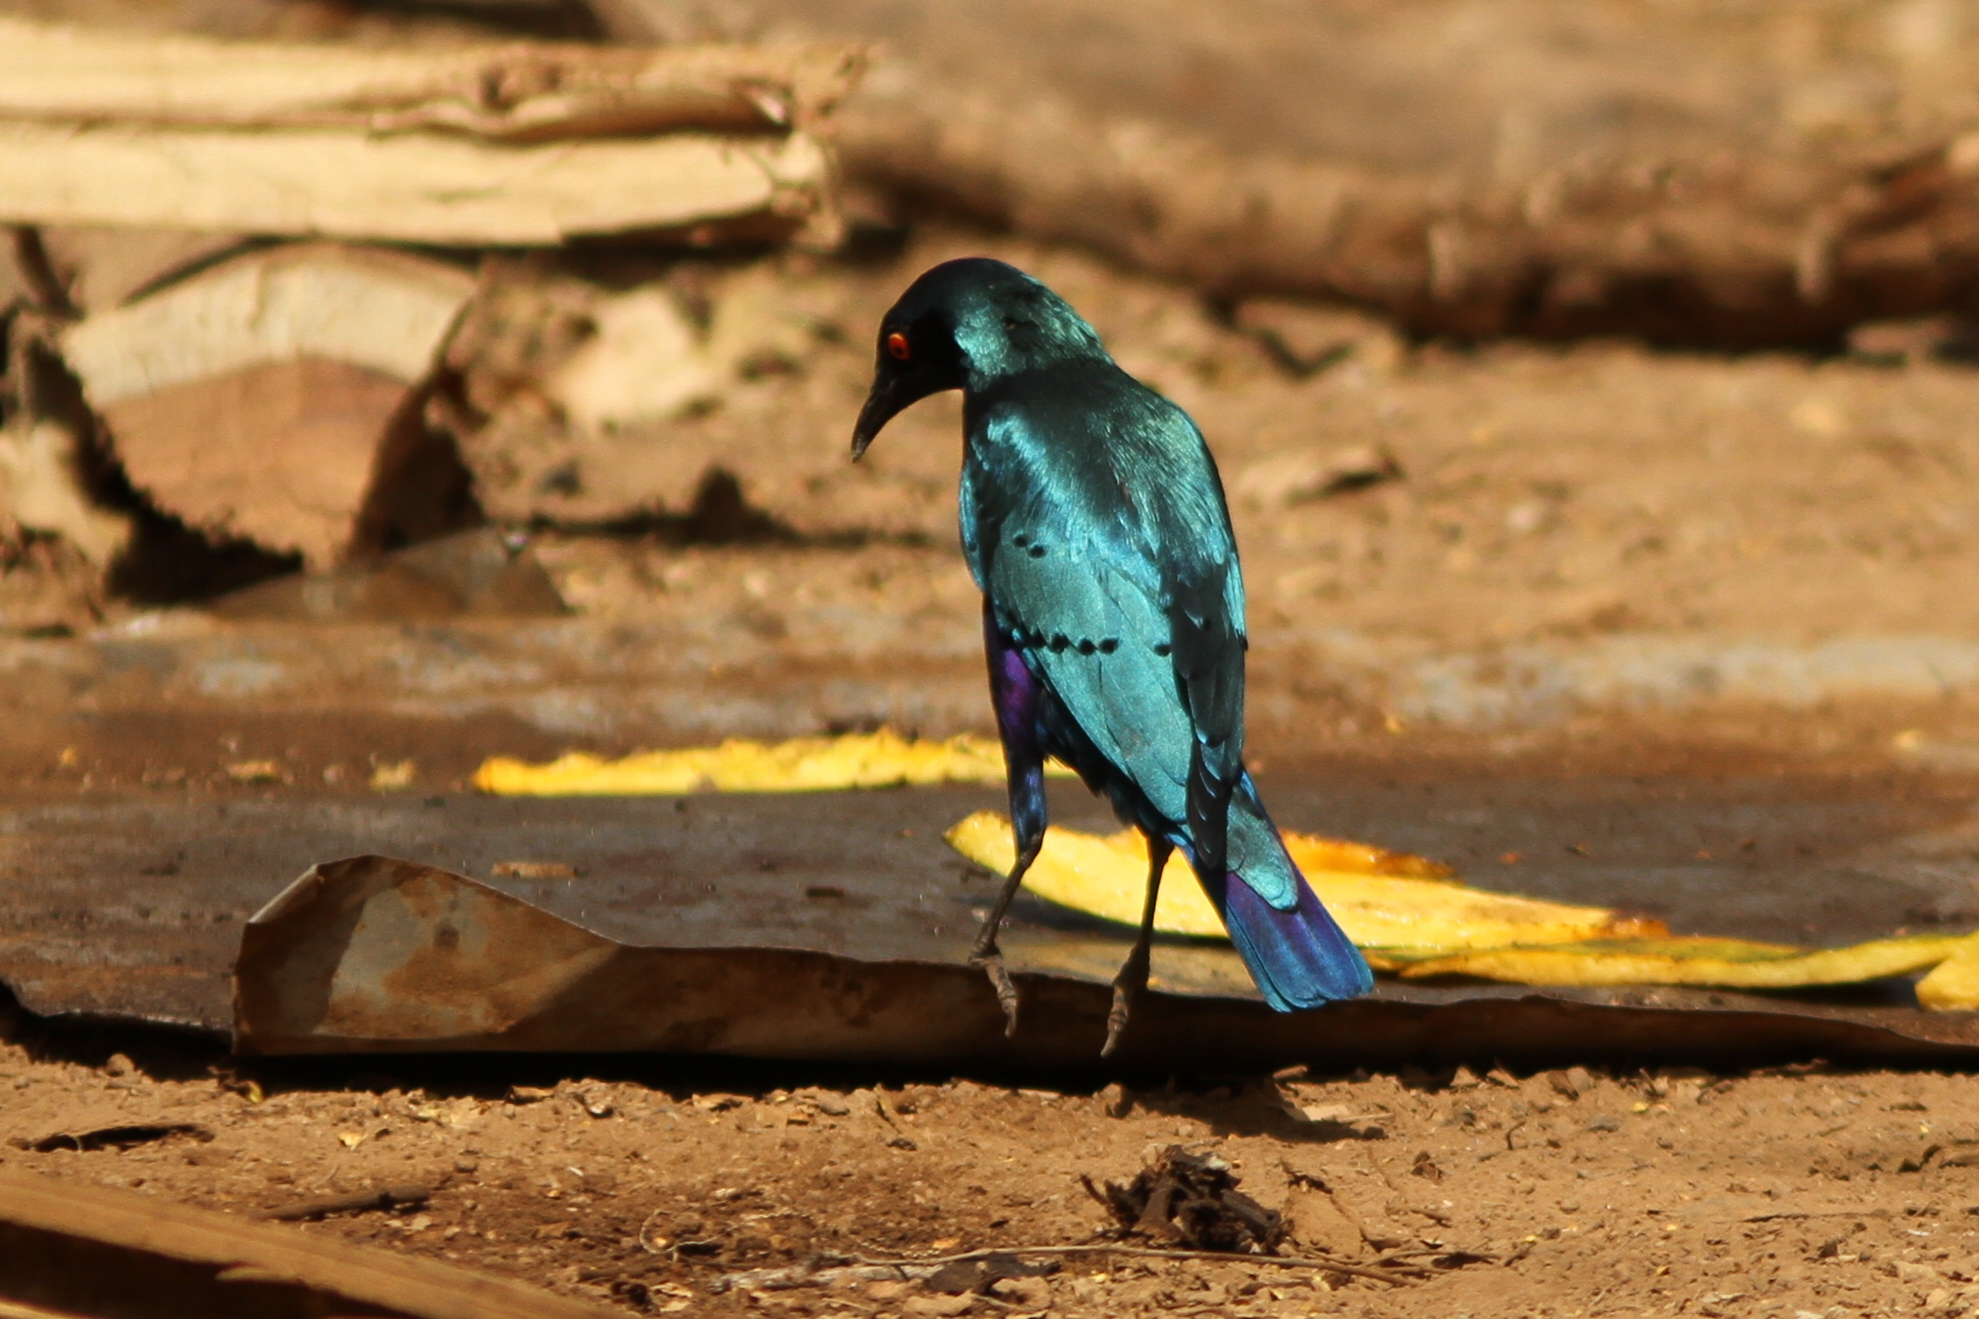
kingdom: Animalia
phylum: Chordata
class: Aves
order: Passeriformes
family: Sturnidae
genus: Lamprotornis
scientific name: Lamprotornis chalcurus
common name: Bronze-tailed starling
